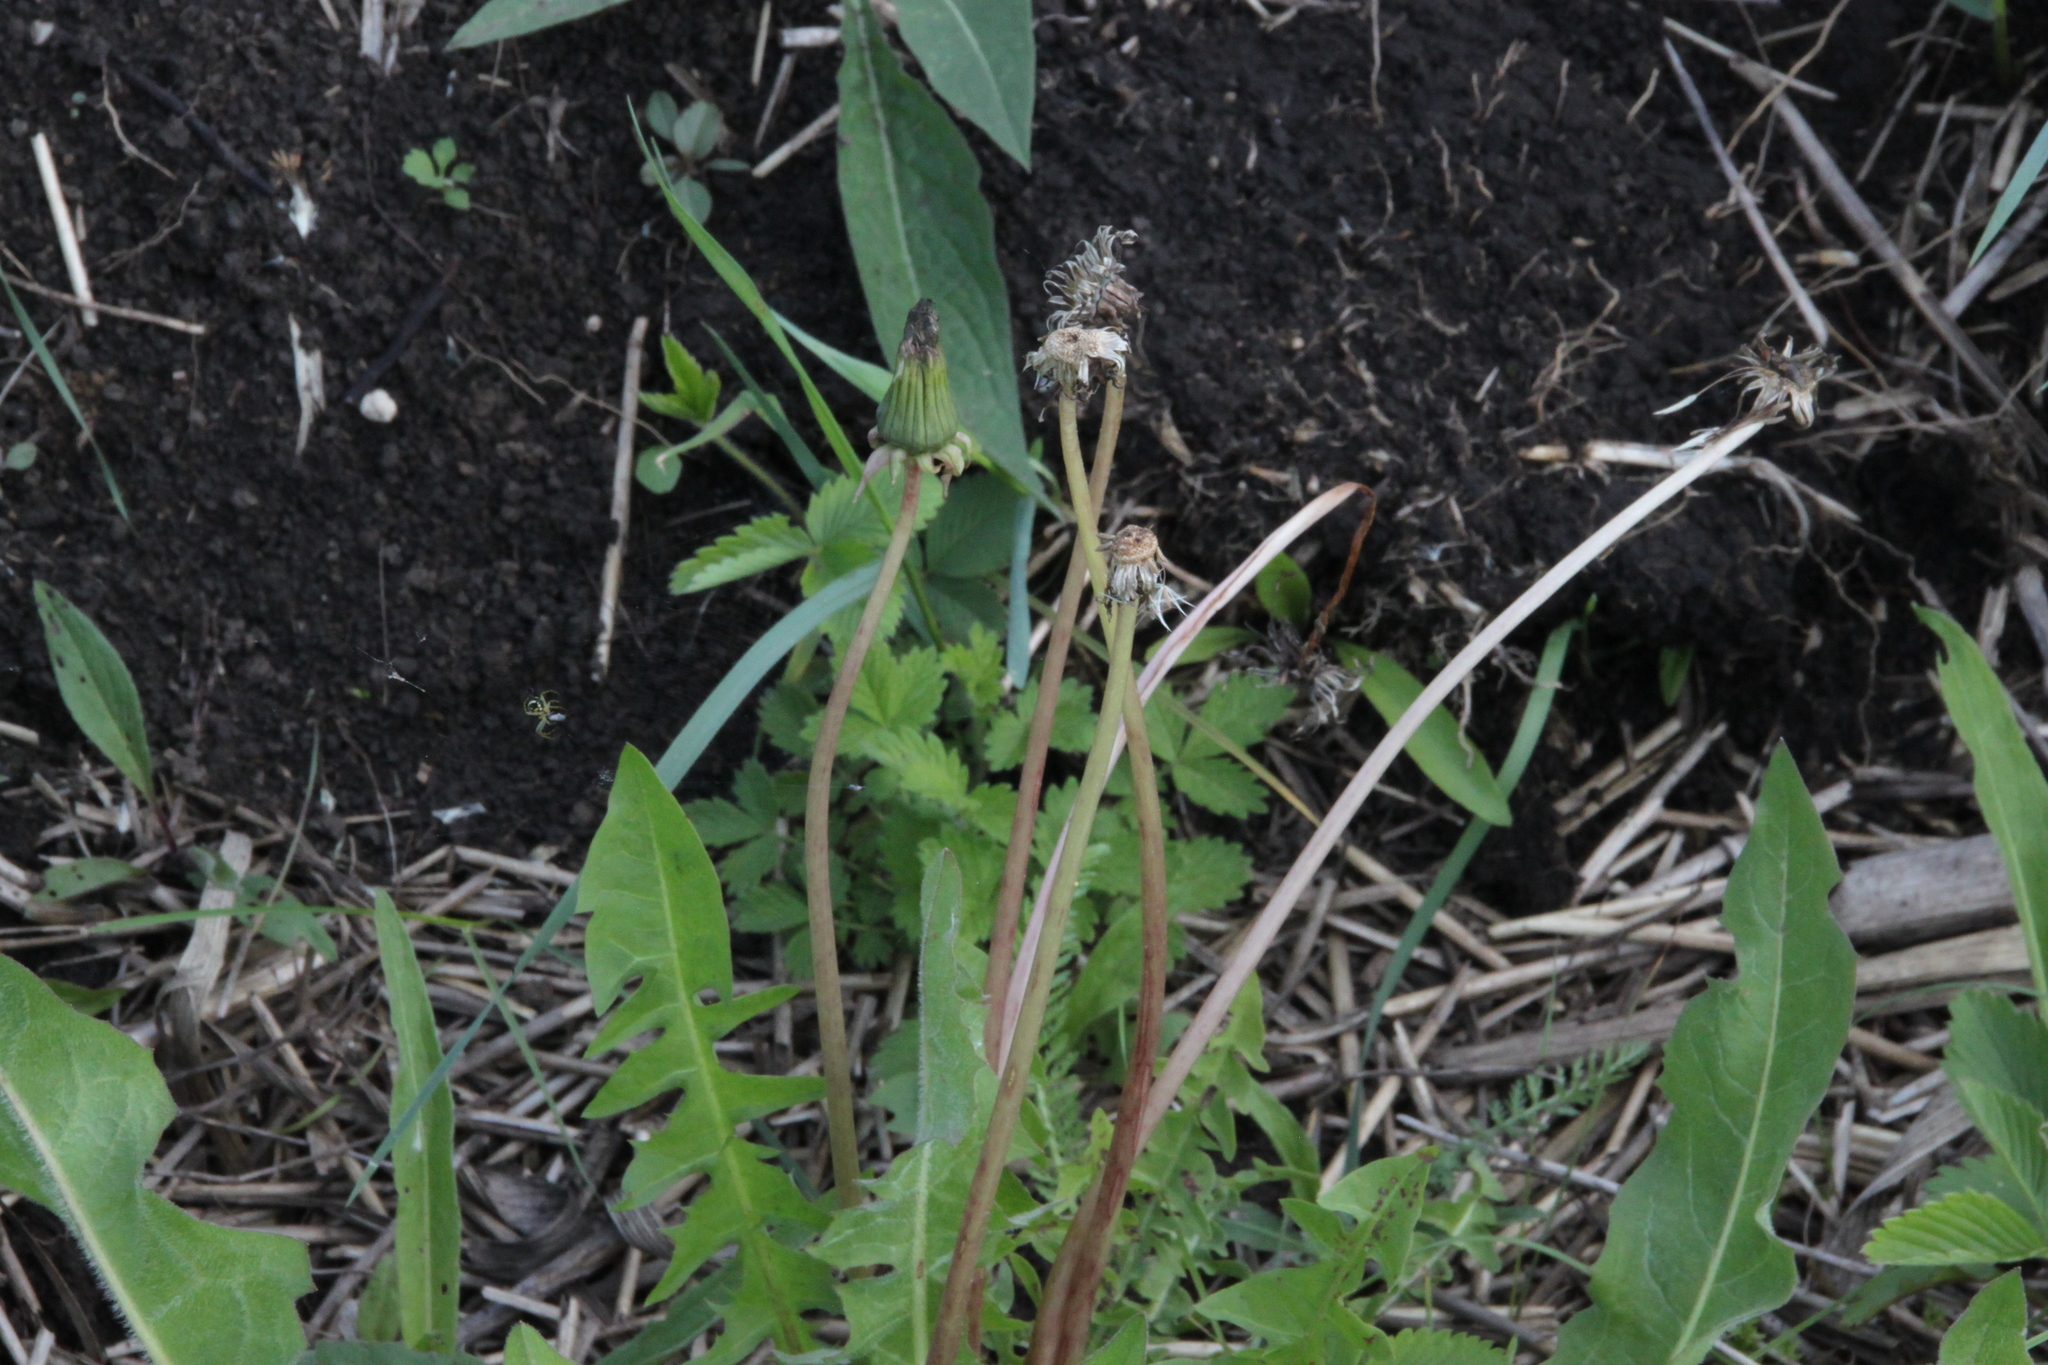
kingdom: Plantae
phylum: Tracheophyta
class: Magnoliopsida
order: Asterales
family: Asteraceae
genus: Taraxacum
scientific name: Taraxacum officinale
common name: Common dandelion
